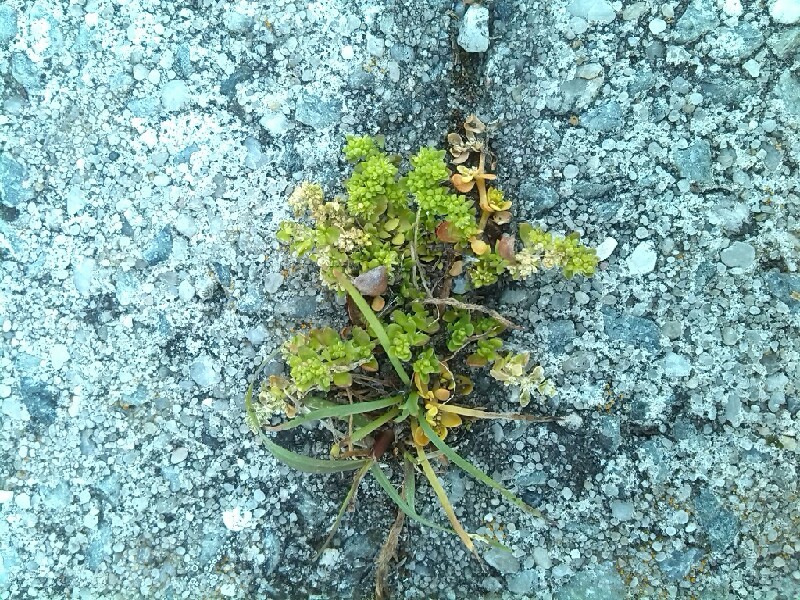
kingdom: Plantae
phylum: Tracheophyta
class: Magnoliopsida
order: Caryophyllales
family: Caryophyllaceae
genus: Herniaria
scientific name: Herniaria glabra
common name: Smooth rupturewort
